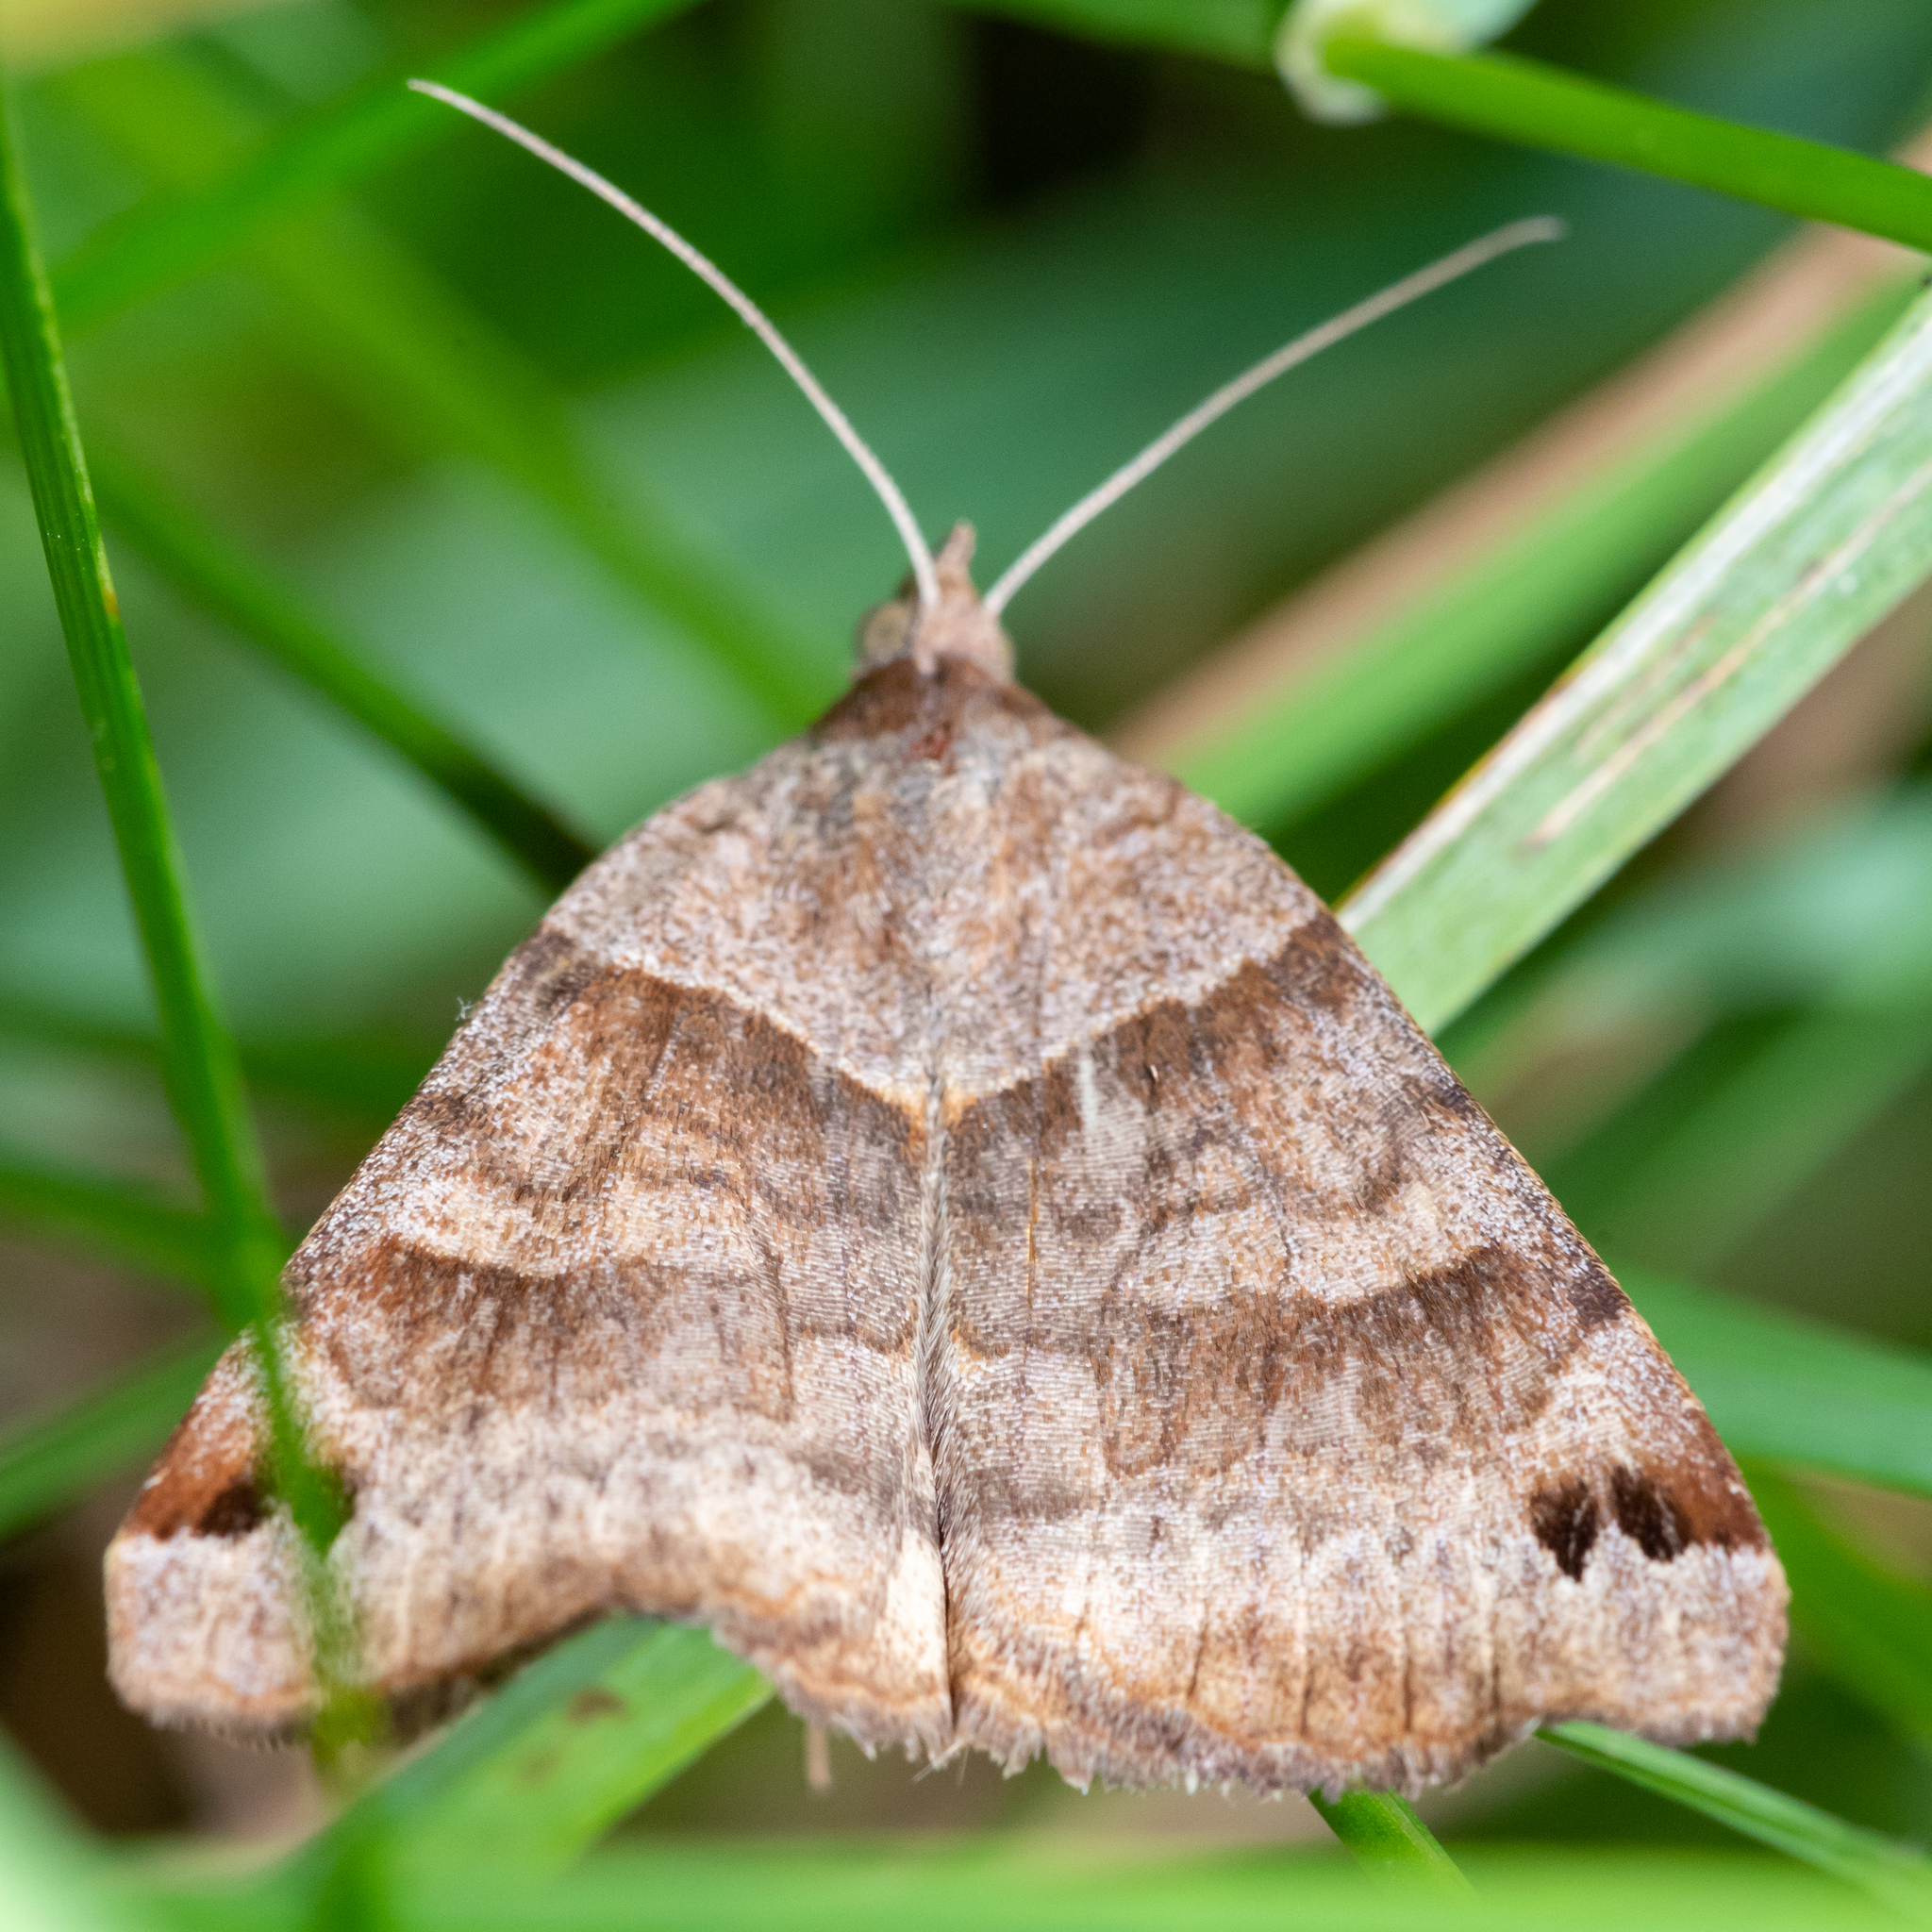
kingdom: Animalia
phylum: Arthropoda
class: Insecta
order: Lepidoptera
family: Erebidae
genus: Caenurgina
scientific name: Caenurgina crassiuscula
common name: Double-barred
